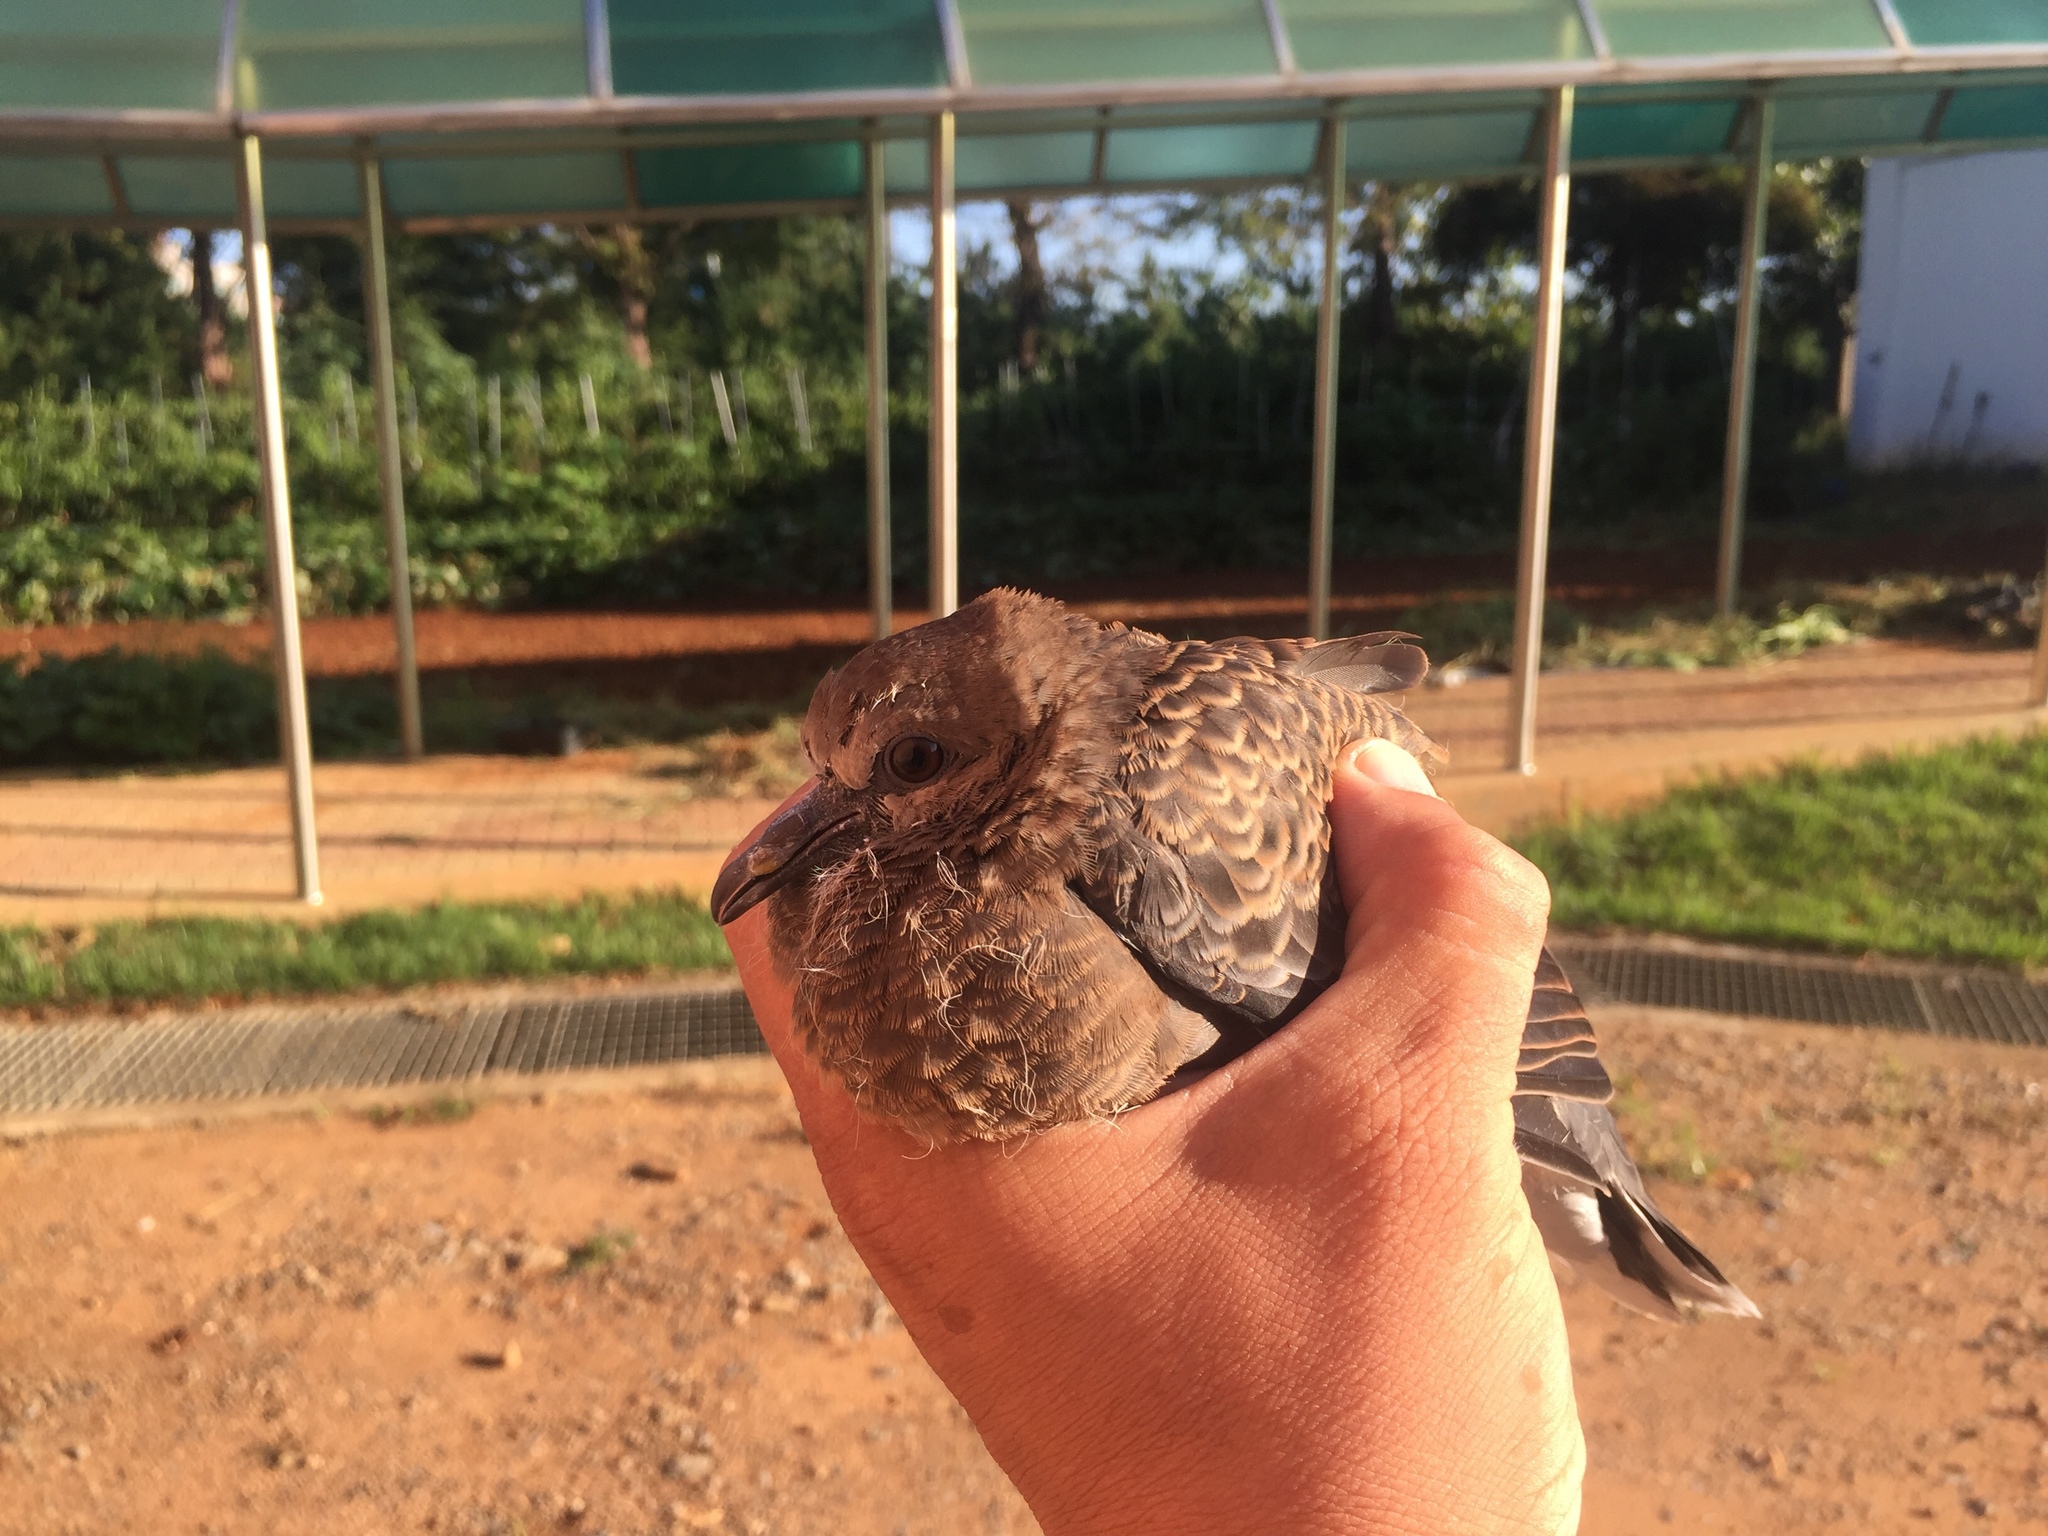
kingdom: Animalia
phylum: Chordata
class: Aves
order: Columbiformes
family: Columbidae
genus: Streptopelia
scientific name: Streptopelia orientalis
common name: Oriental turtle dove
